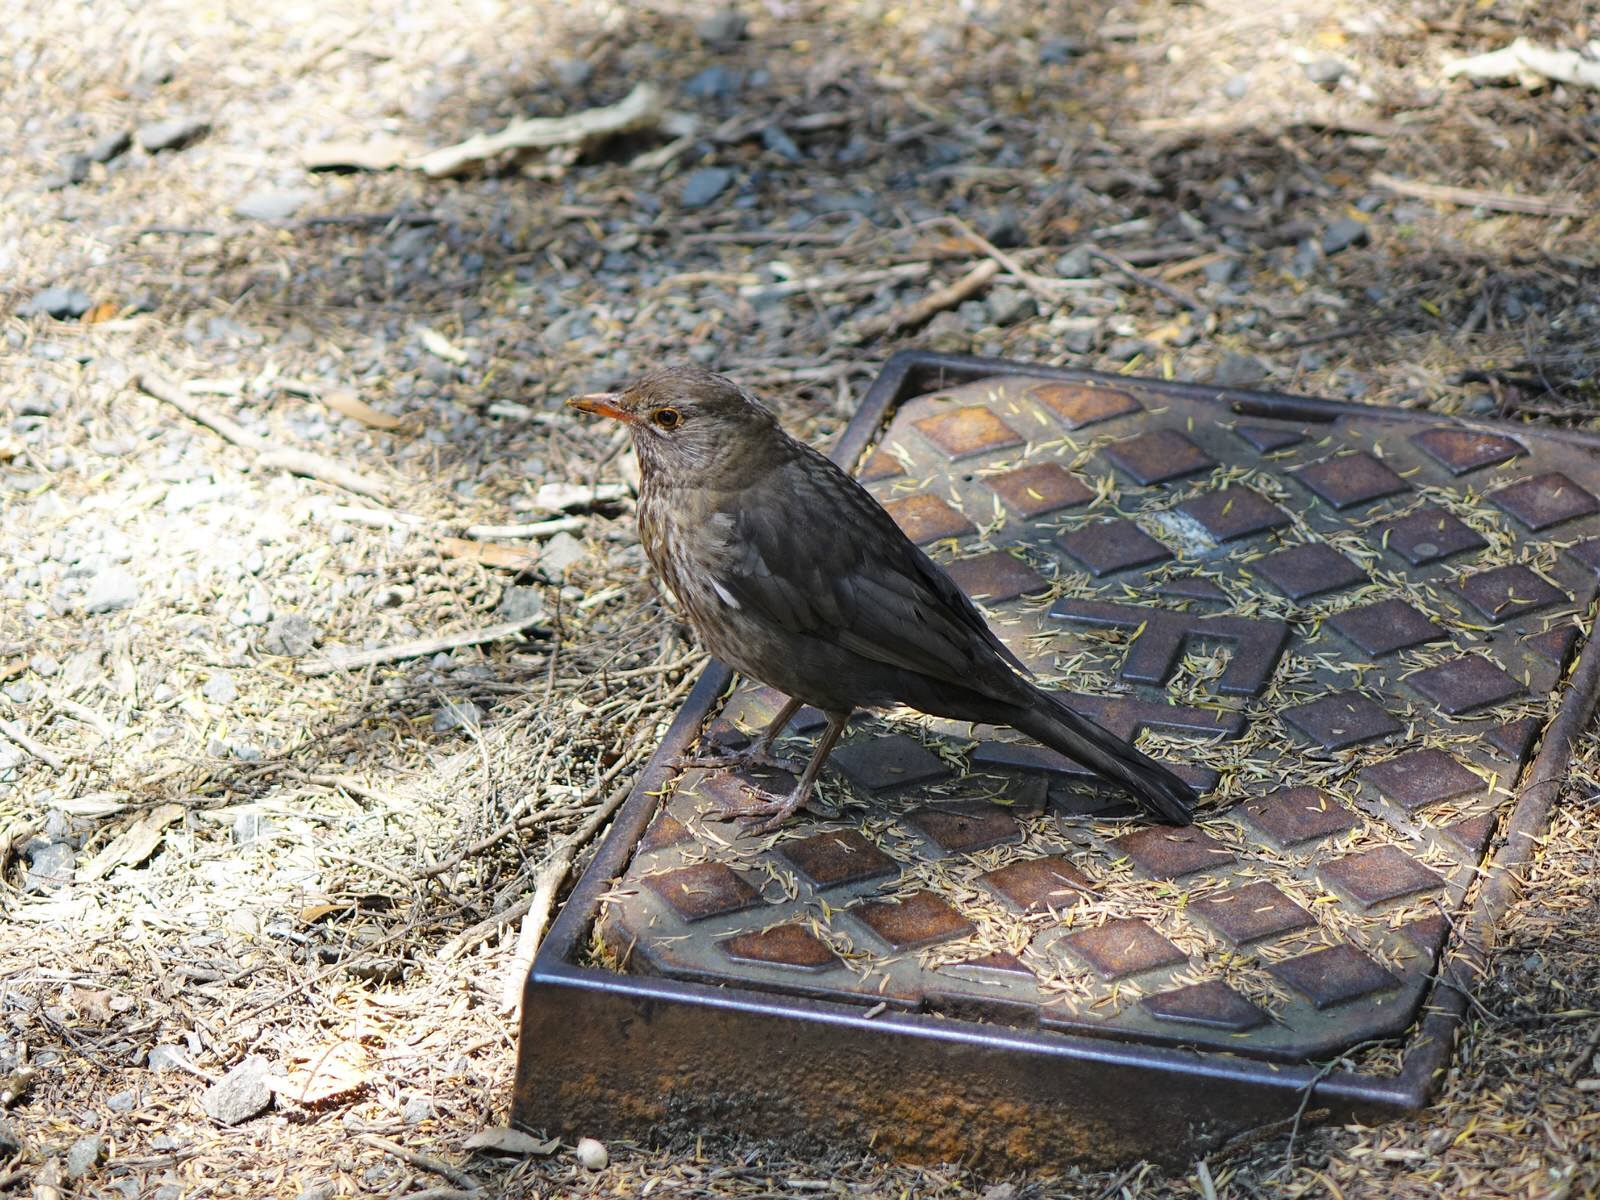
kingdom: Animalia
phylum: Chordata
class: Aves
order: Passeriformes
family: Turdidae
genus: Turdus
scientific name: Turdus merula
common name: Common blackbird
